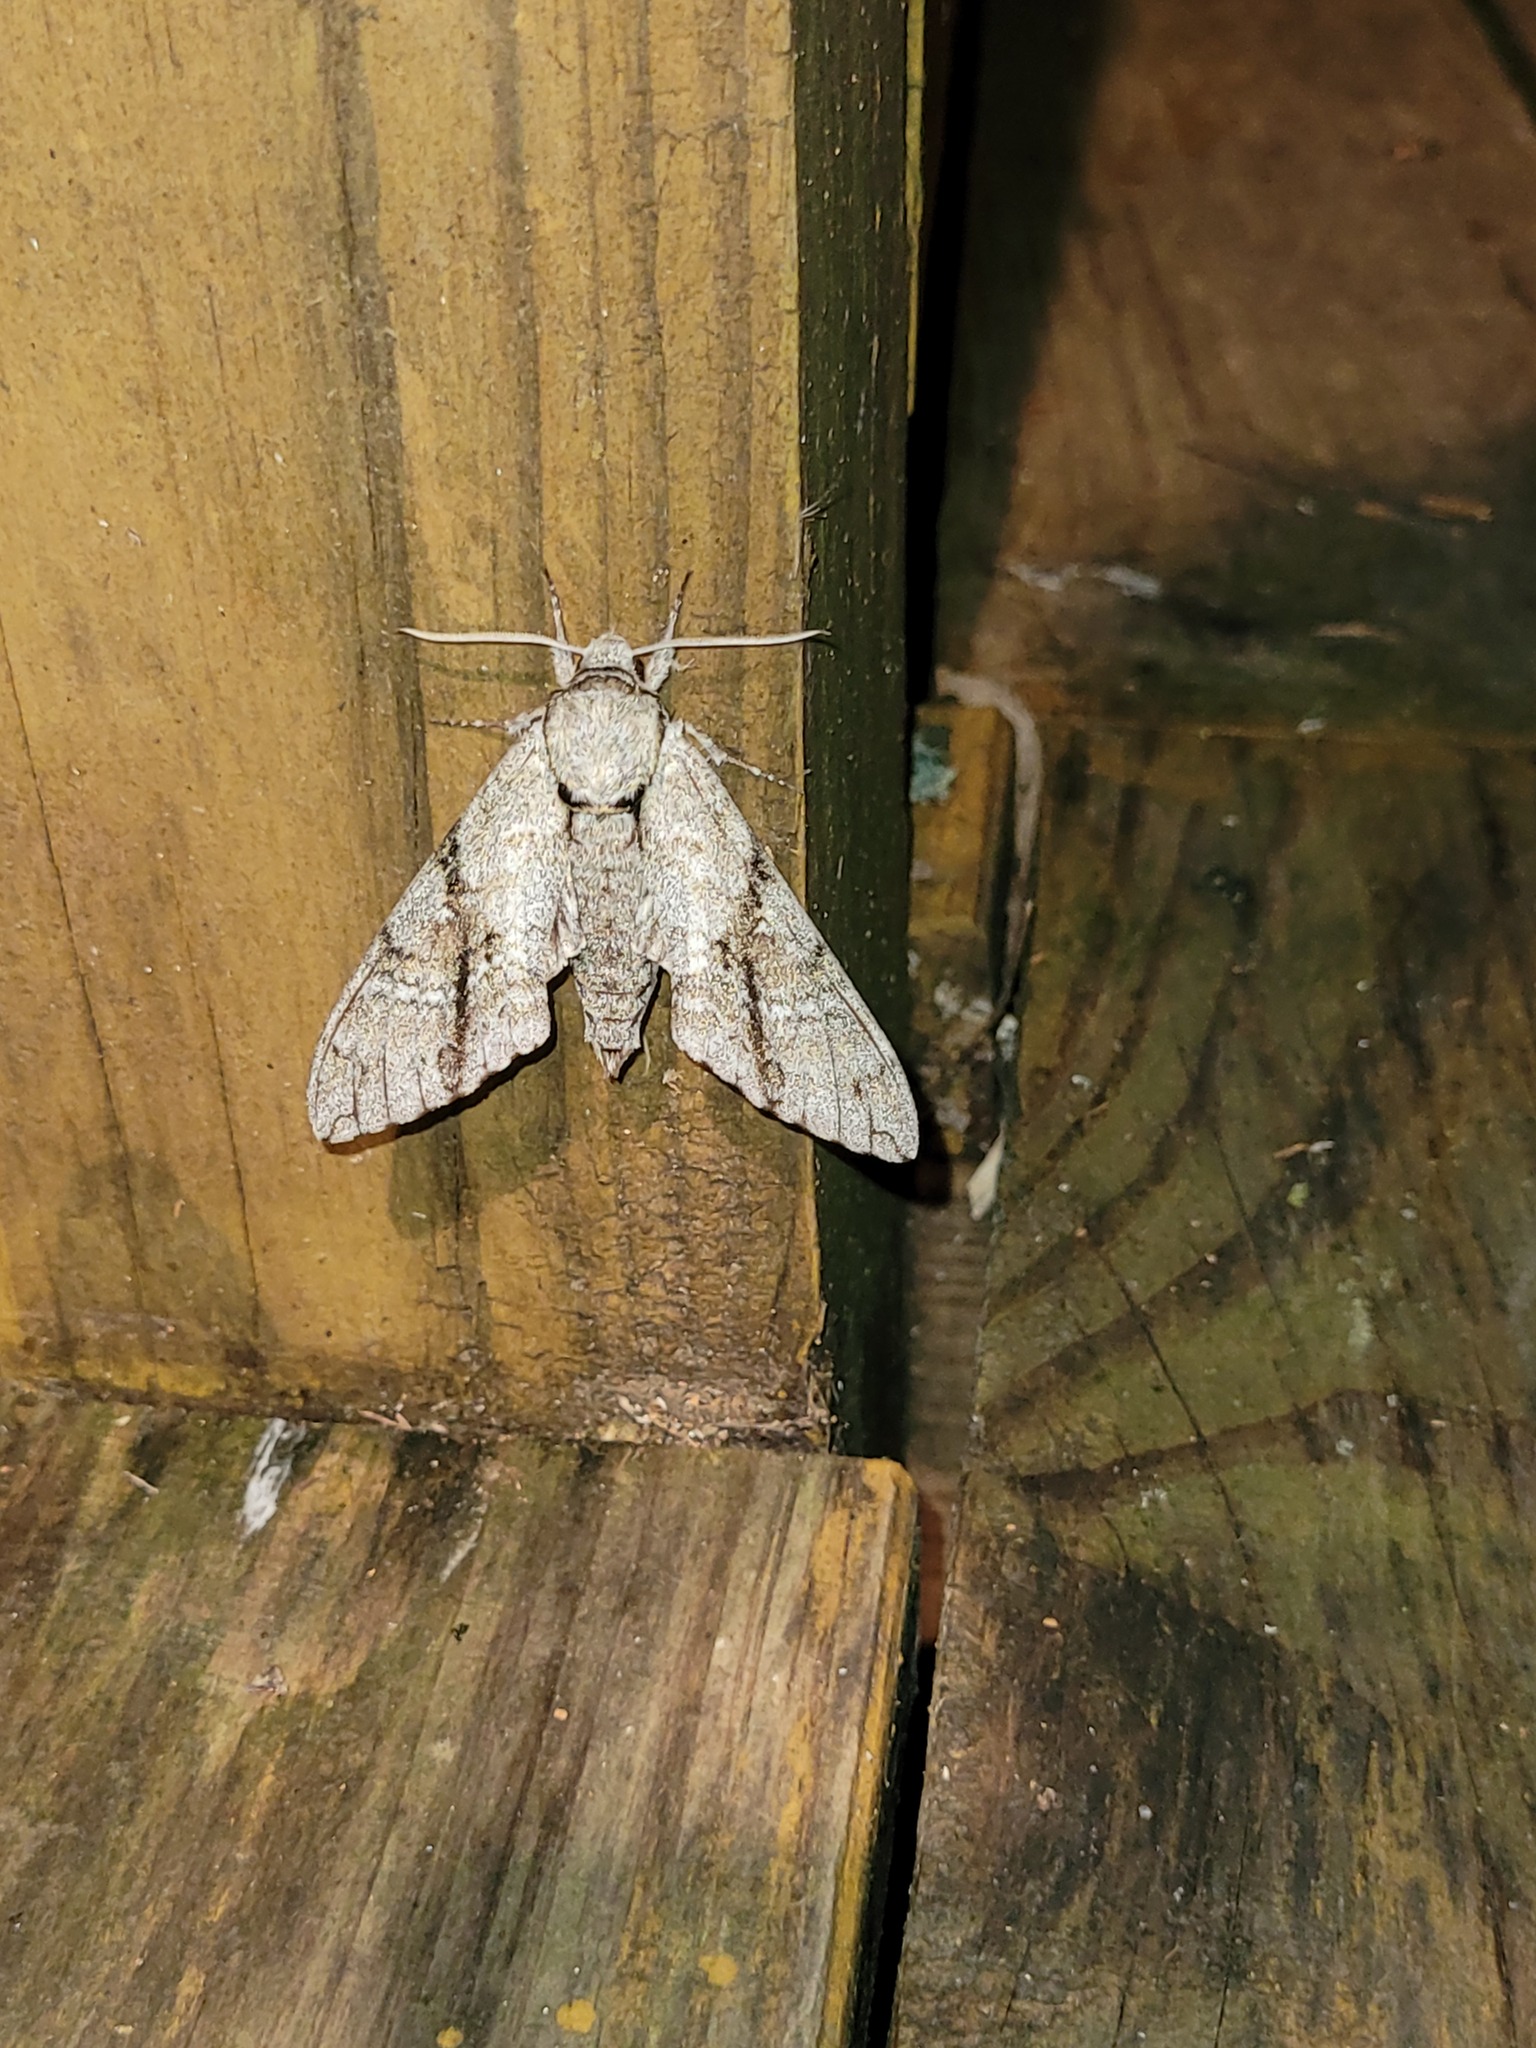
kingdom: Animalia
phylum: Arthropoda
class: Insecta
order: Lepidoptera
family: Sphingidae
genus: Manduca
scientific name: Manduca jasminearum
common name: Ash sphinx
